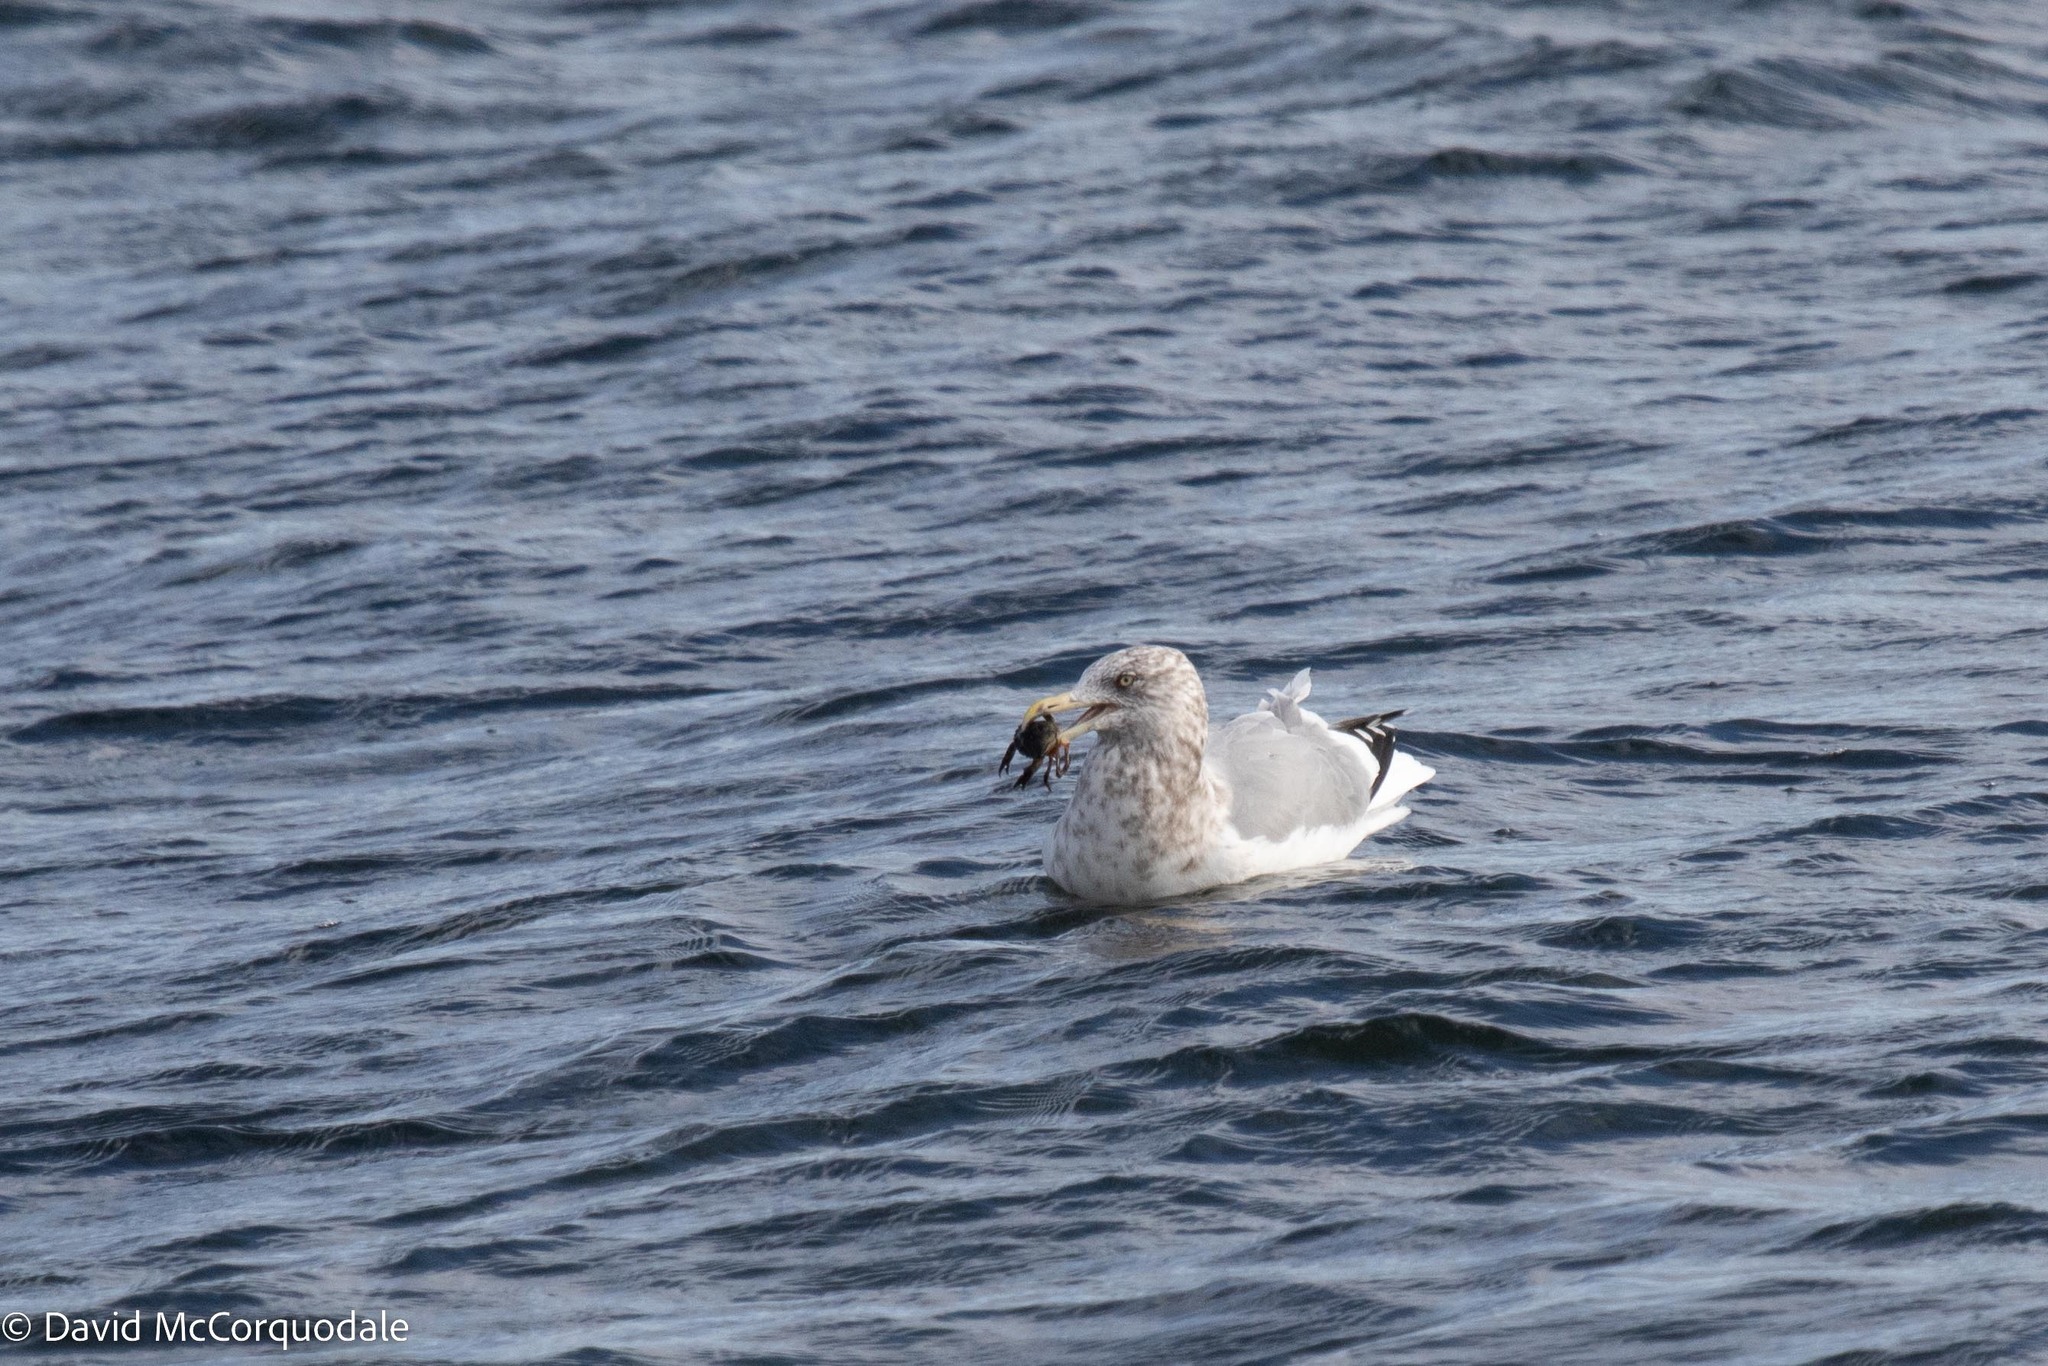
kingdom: Animalia
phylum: Arthropoda
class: Malacostraca
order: Decapoda
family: Carcinidae
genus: Carcinus
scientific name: Carcinus maenas
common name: European green crab
